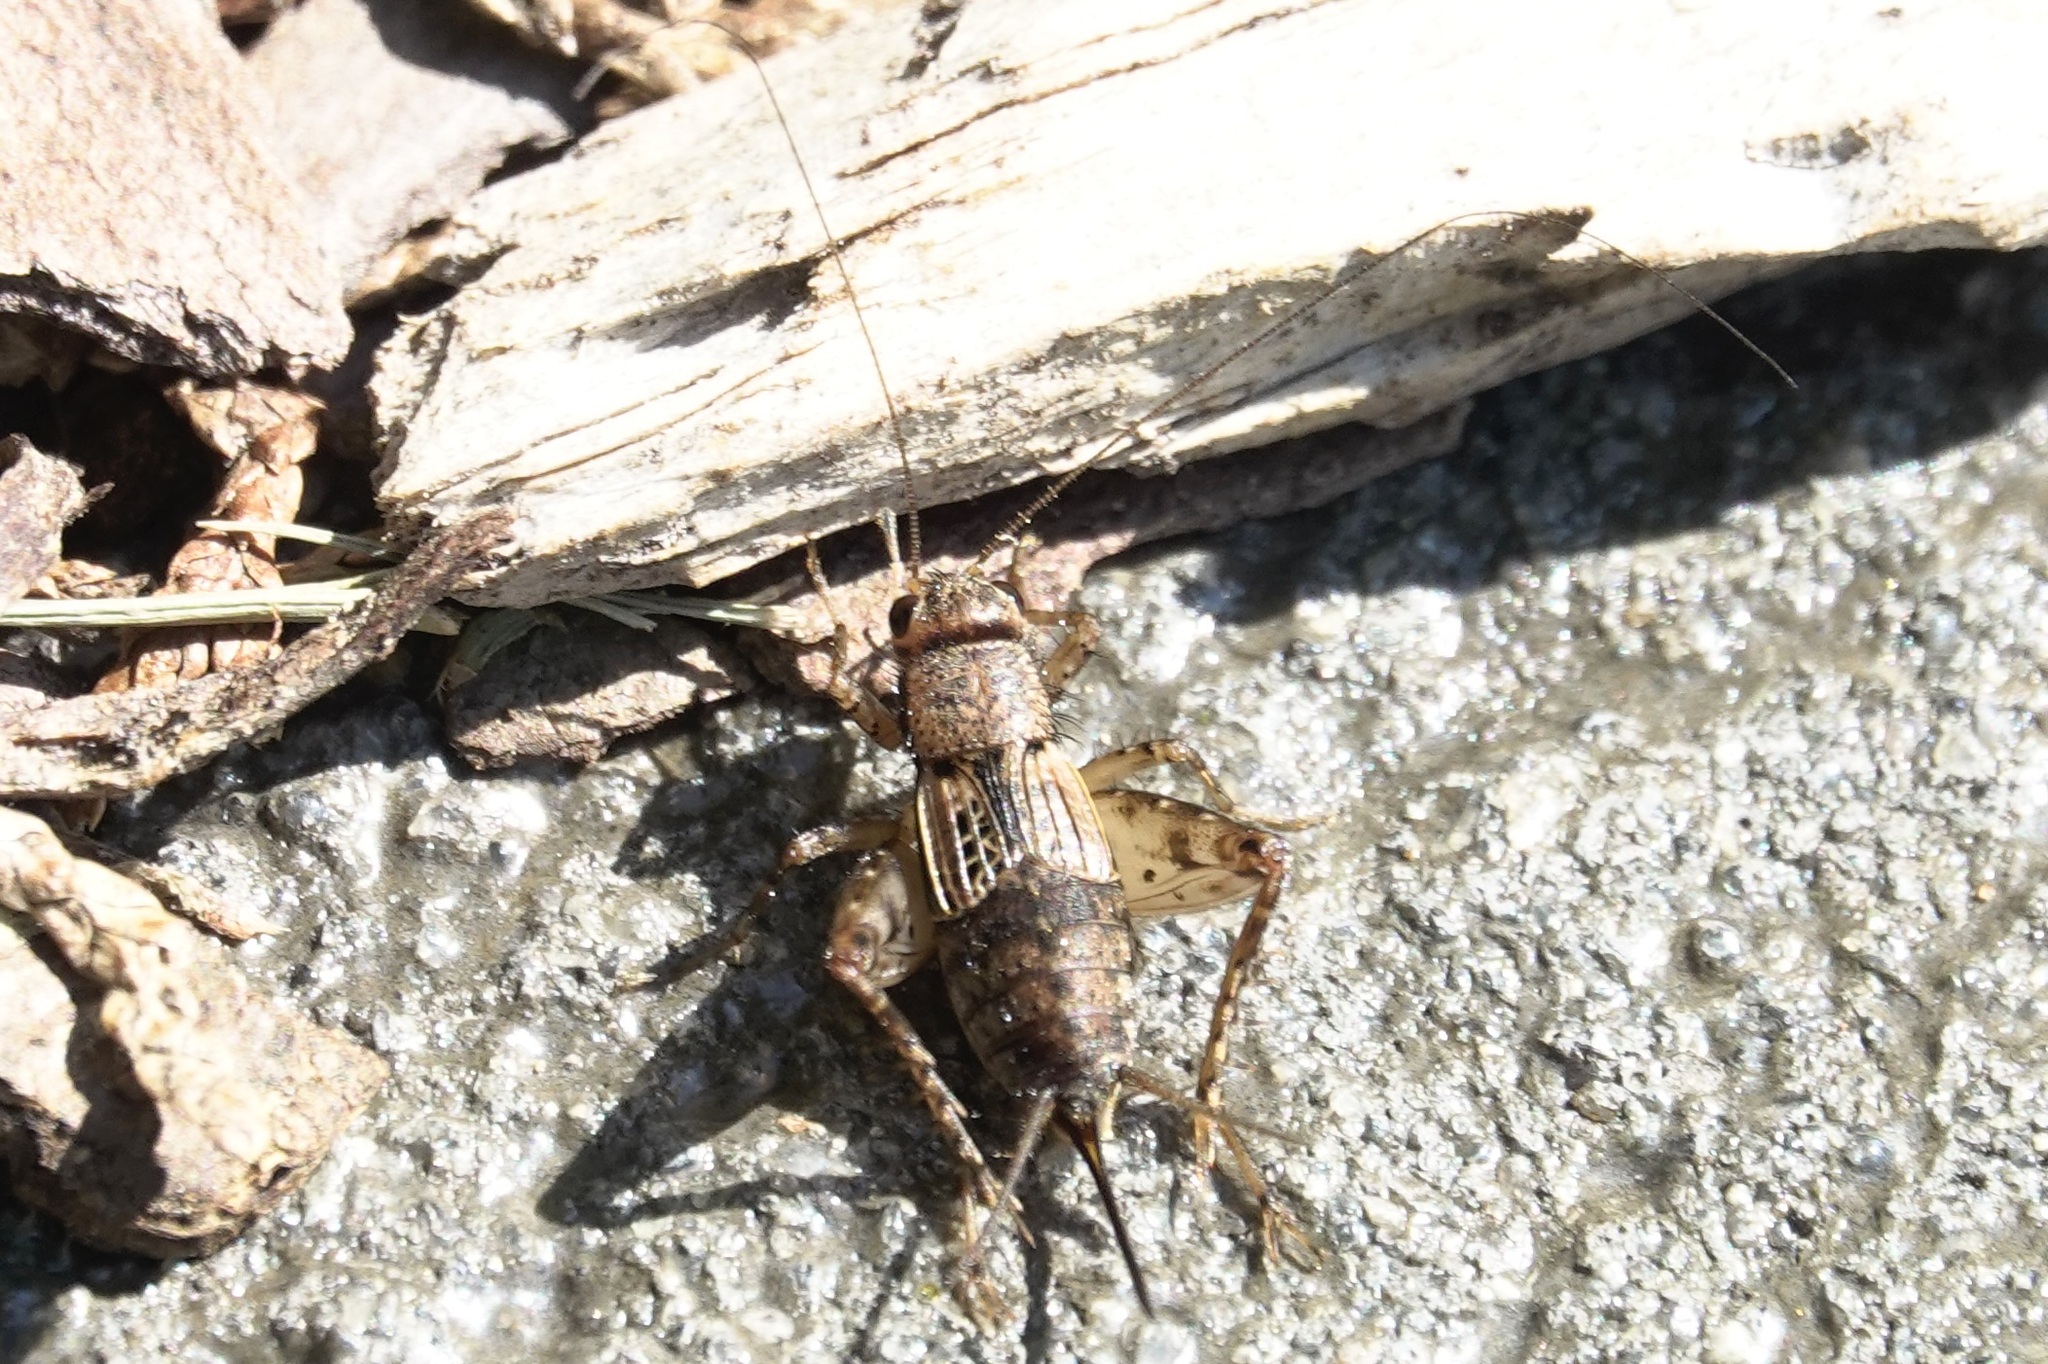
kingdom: Animalia
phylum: Arthropoda
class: Insecta
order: Orthoptera
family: Trigonidiidae
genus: Allonemobius
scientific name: Allonemobius maculatus
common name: Larger spotted ground cricket
